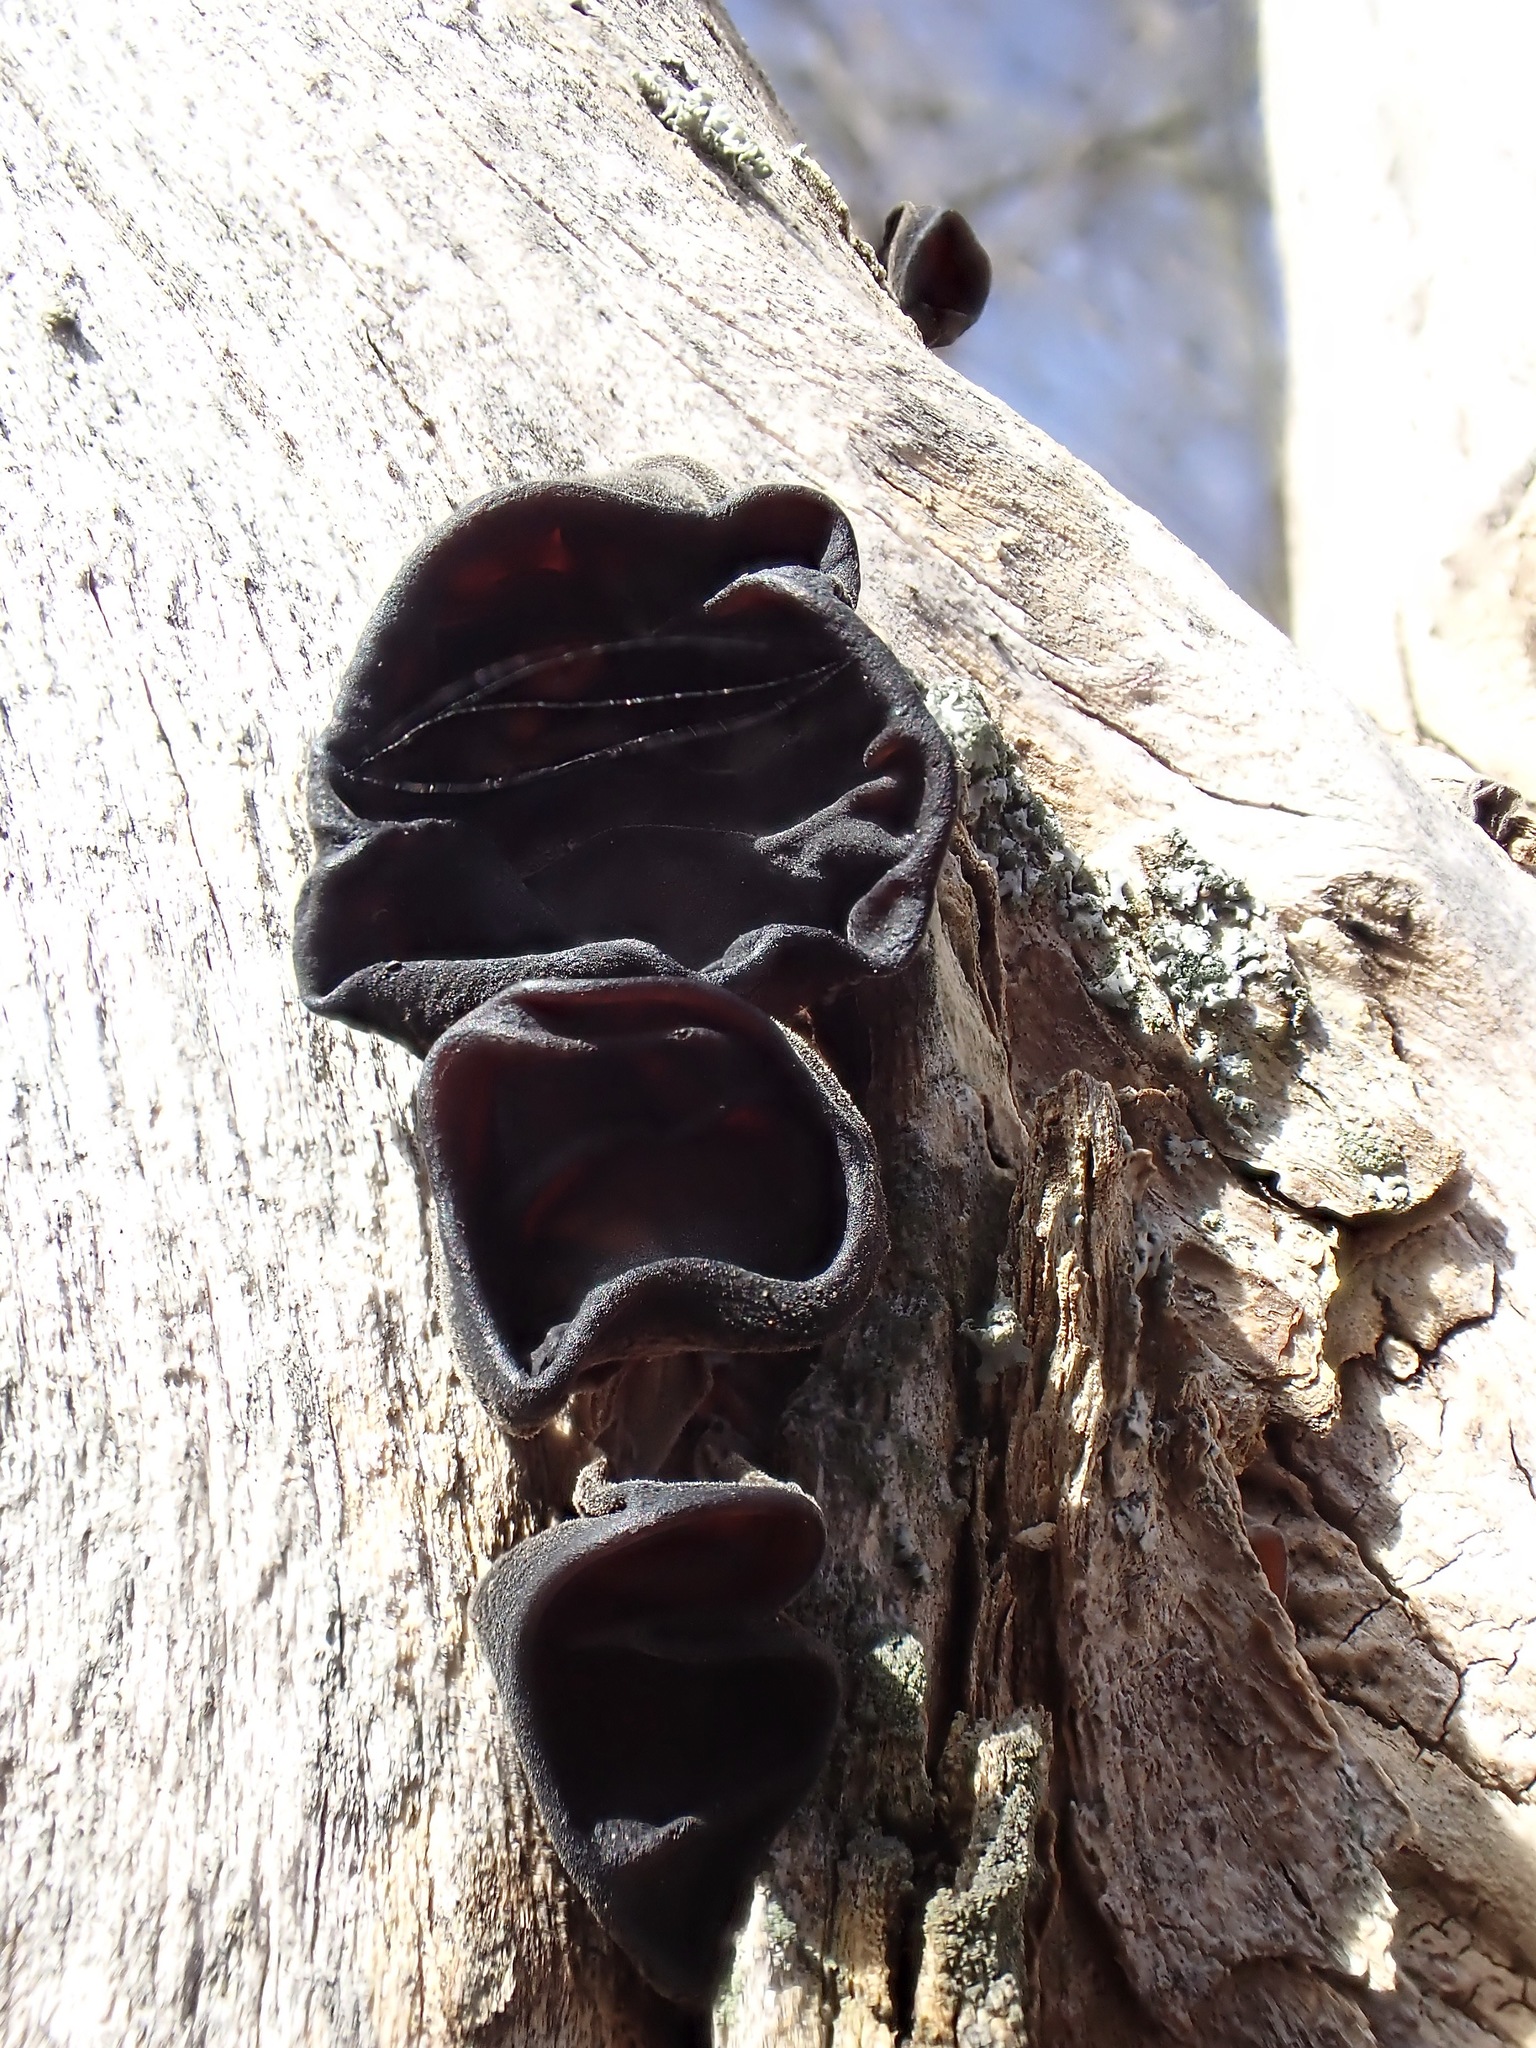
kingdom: Fungi
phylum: Basidiomycota
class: Agaricomycetes
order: Auriculariales
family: Auriculariaceae
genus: Auricularia
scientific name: Auricularia auricula-judae
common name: Jelly ear
